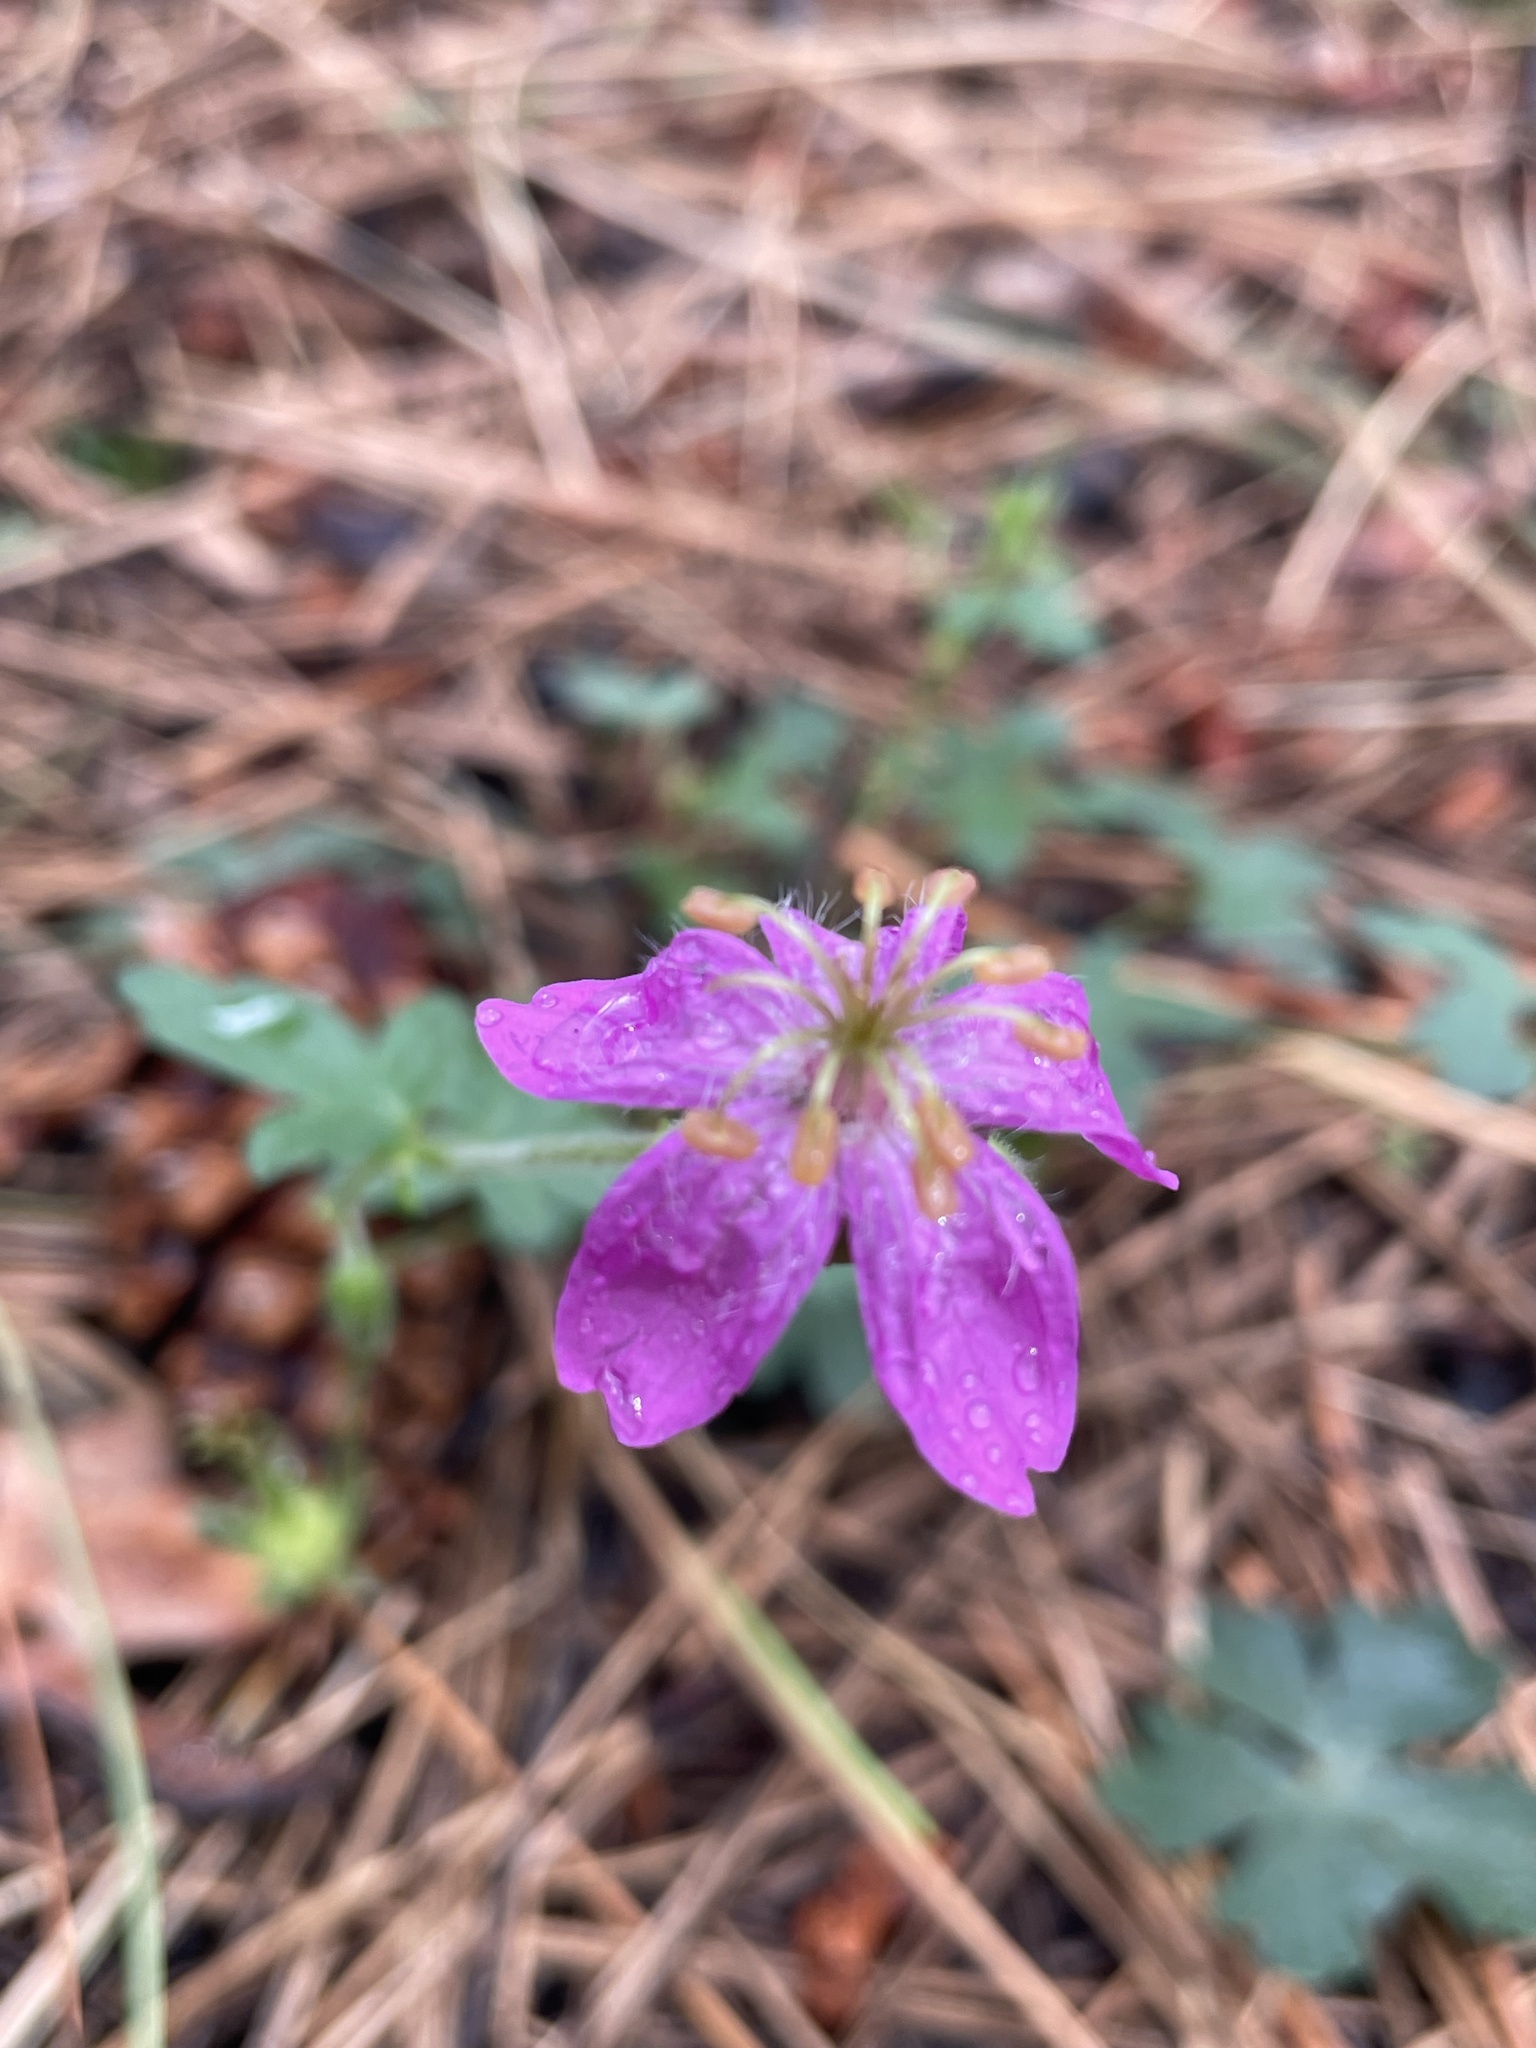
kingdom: Plantae
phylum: Tracheophyta
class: Magnoliopsida
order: Geraniales
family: Geraniaceae
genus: Geranium
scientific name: Geranium caespitosum
